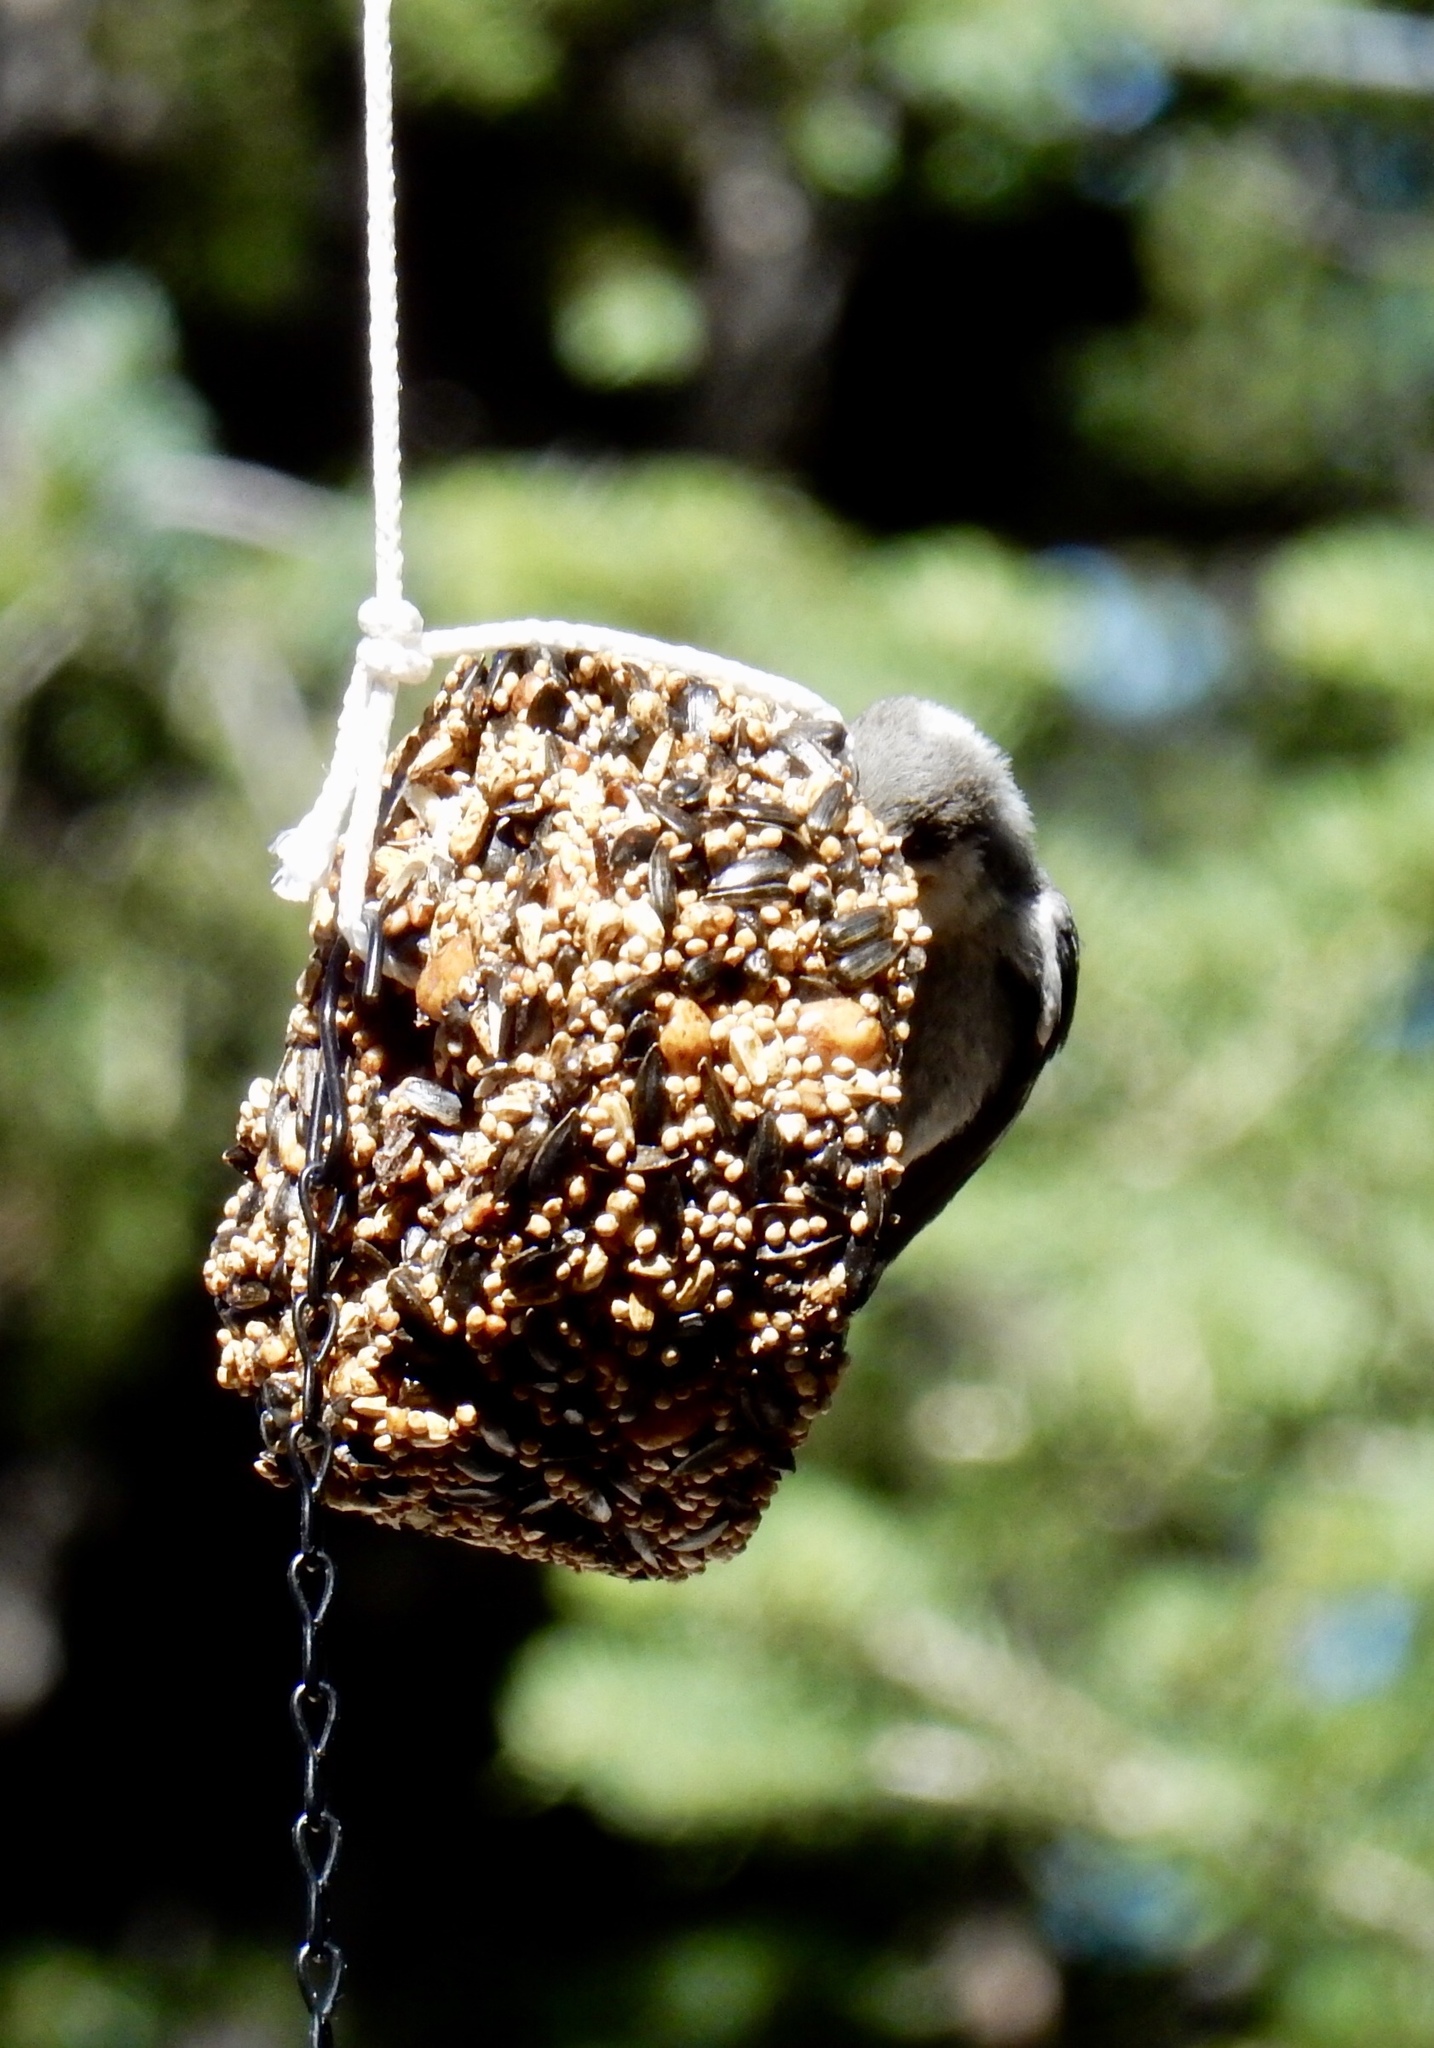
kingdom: Animalia
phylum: Chordata
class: Aves
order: Passeriformes
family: Sittidae
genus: Sitta
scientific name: Sitta pygmaea
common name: Pygmy nuthatch
